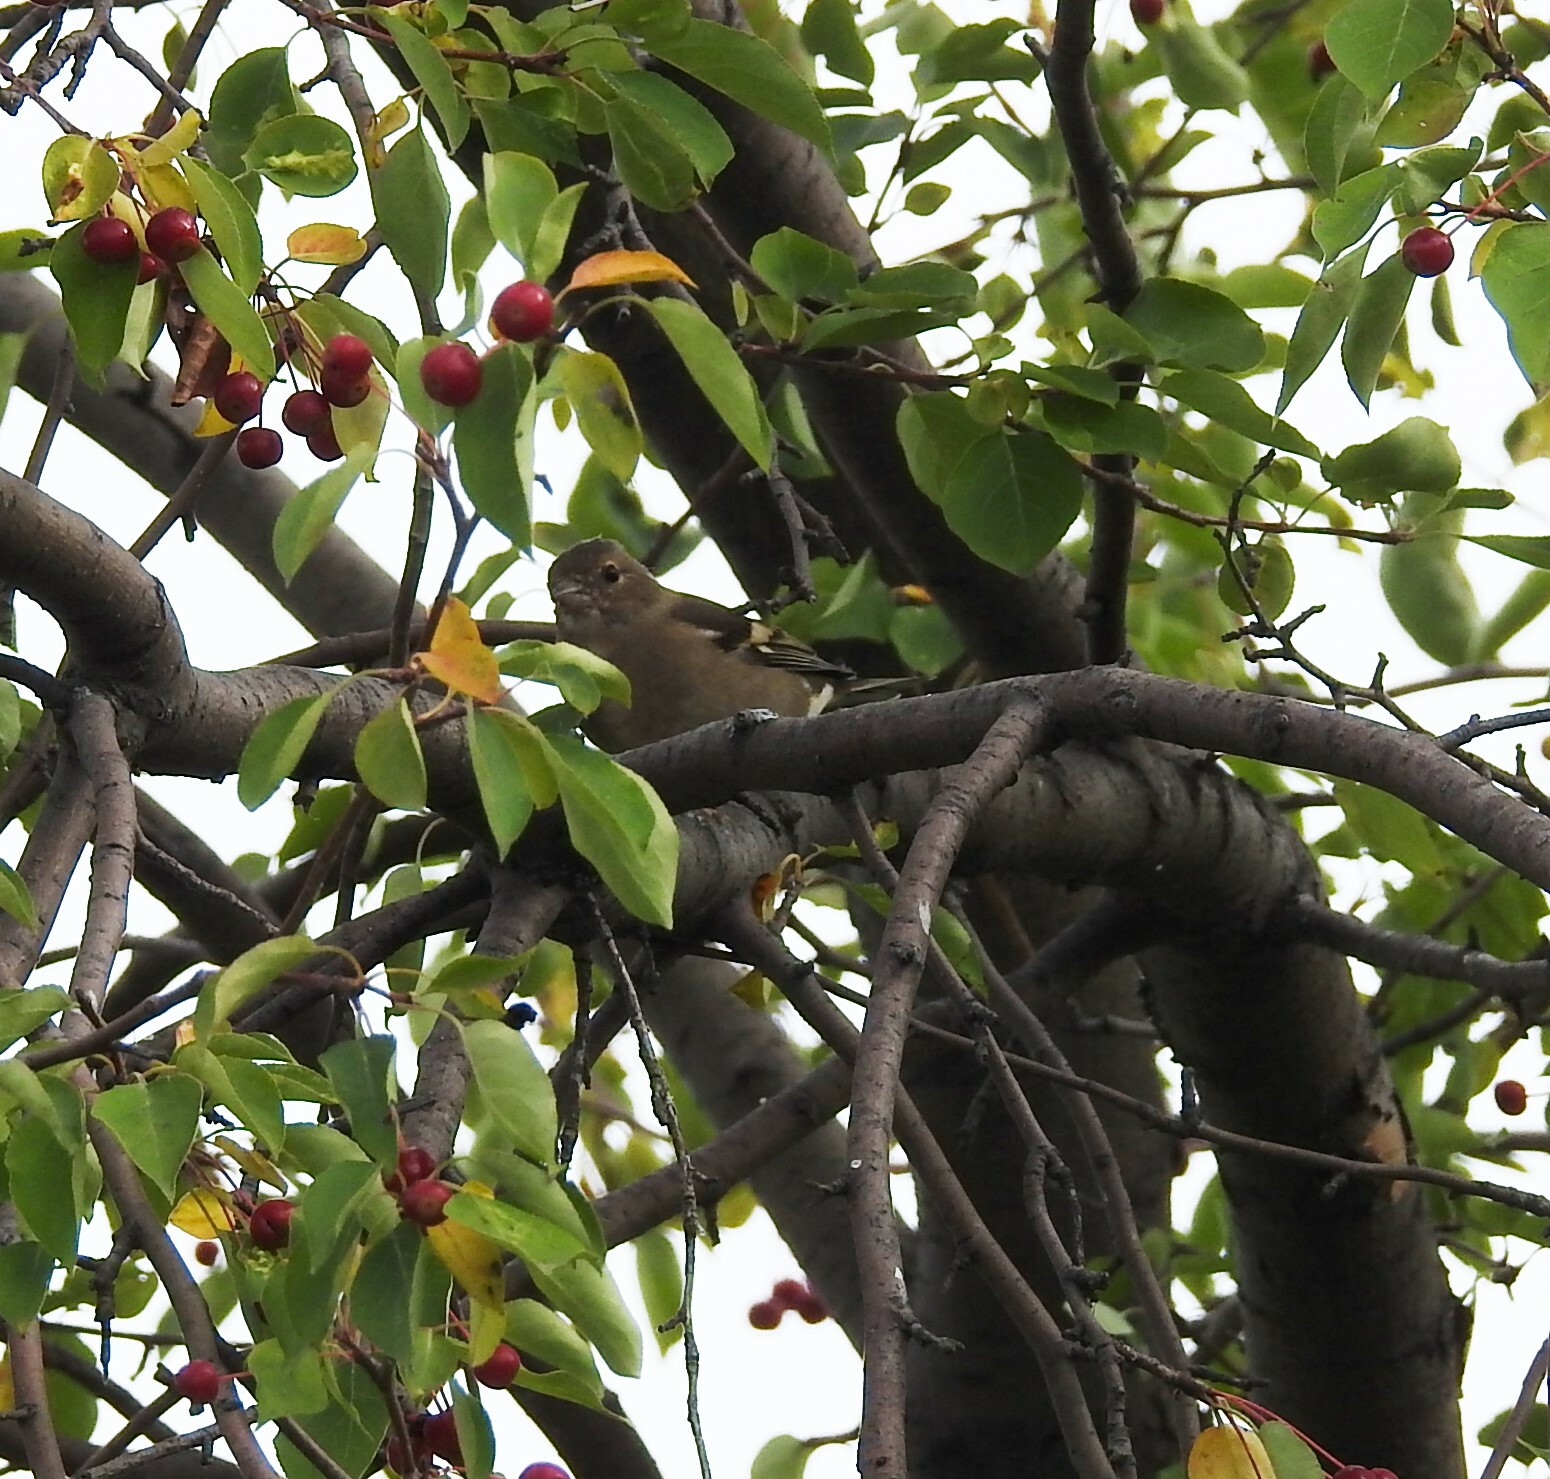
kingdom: Animalia
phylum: Chordata
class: Aves
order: Passeriformes
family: Fringillidae
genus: Fringilla
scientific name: Fringilla coelebs
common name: Common chaffinch
